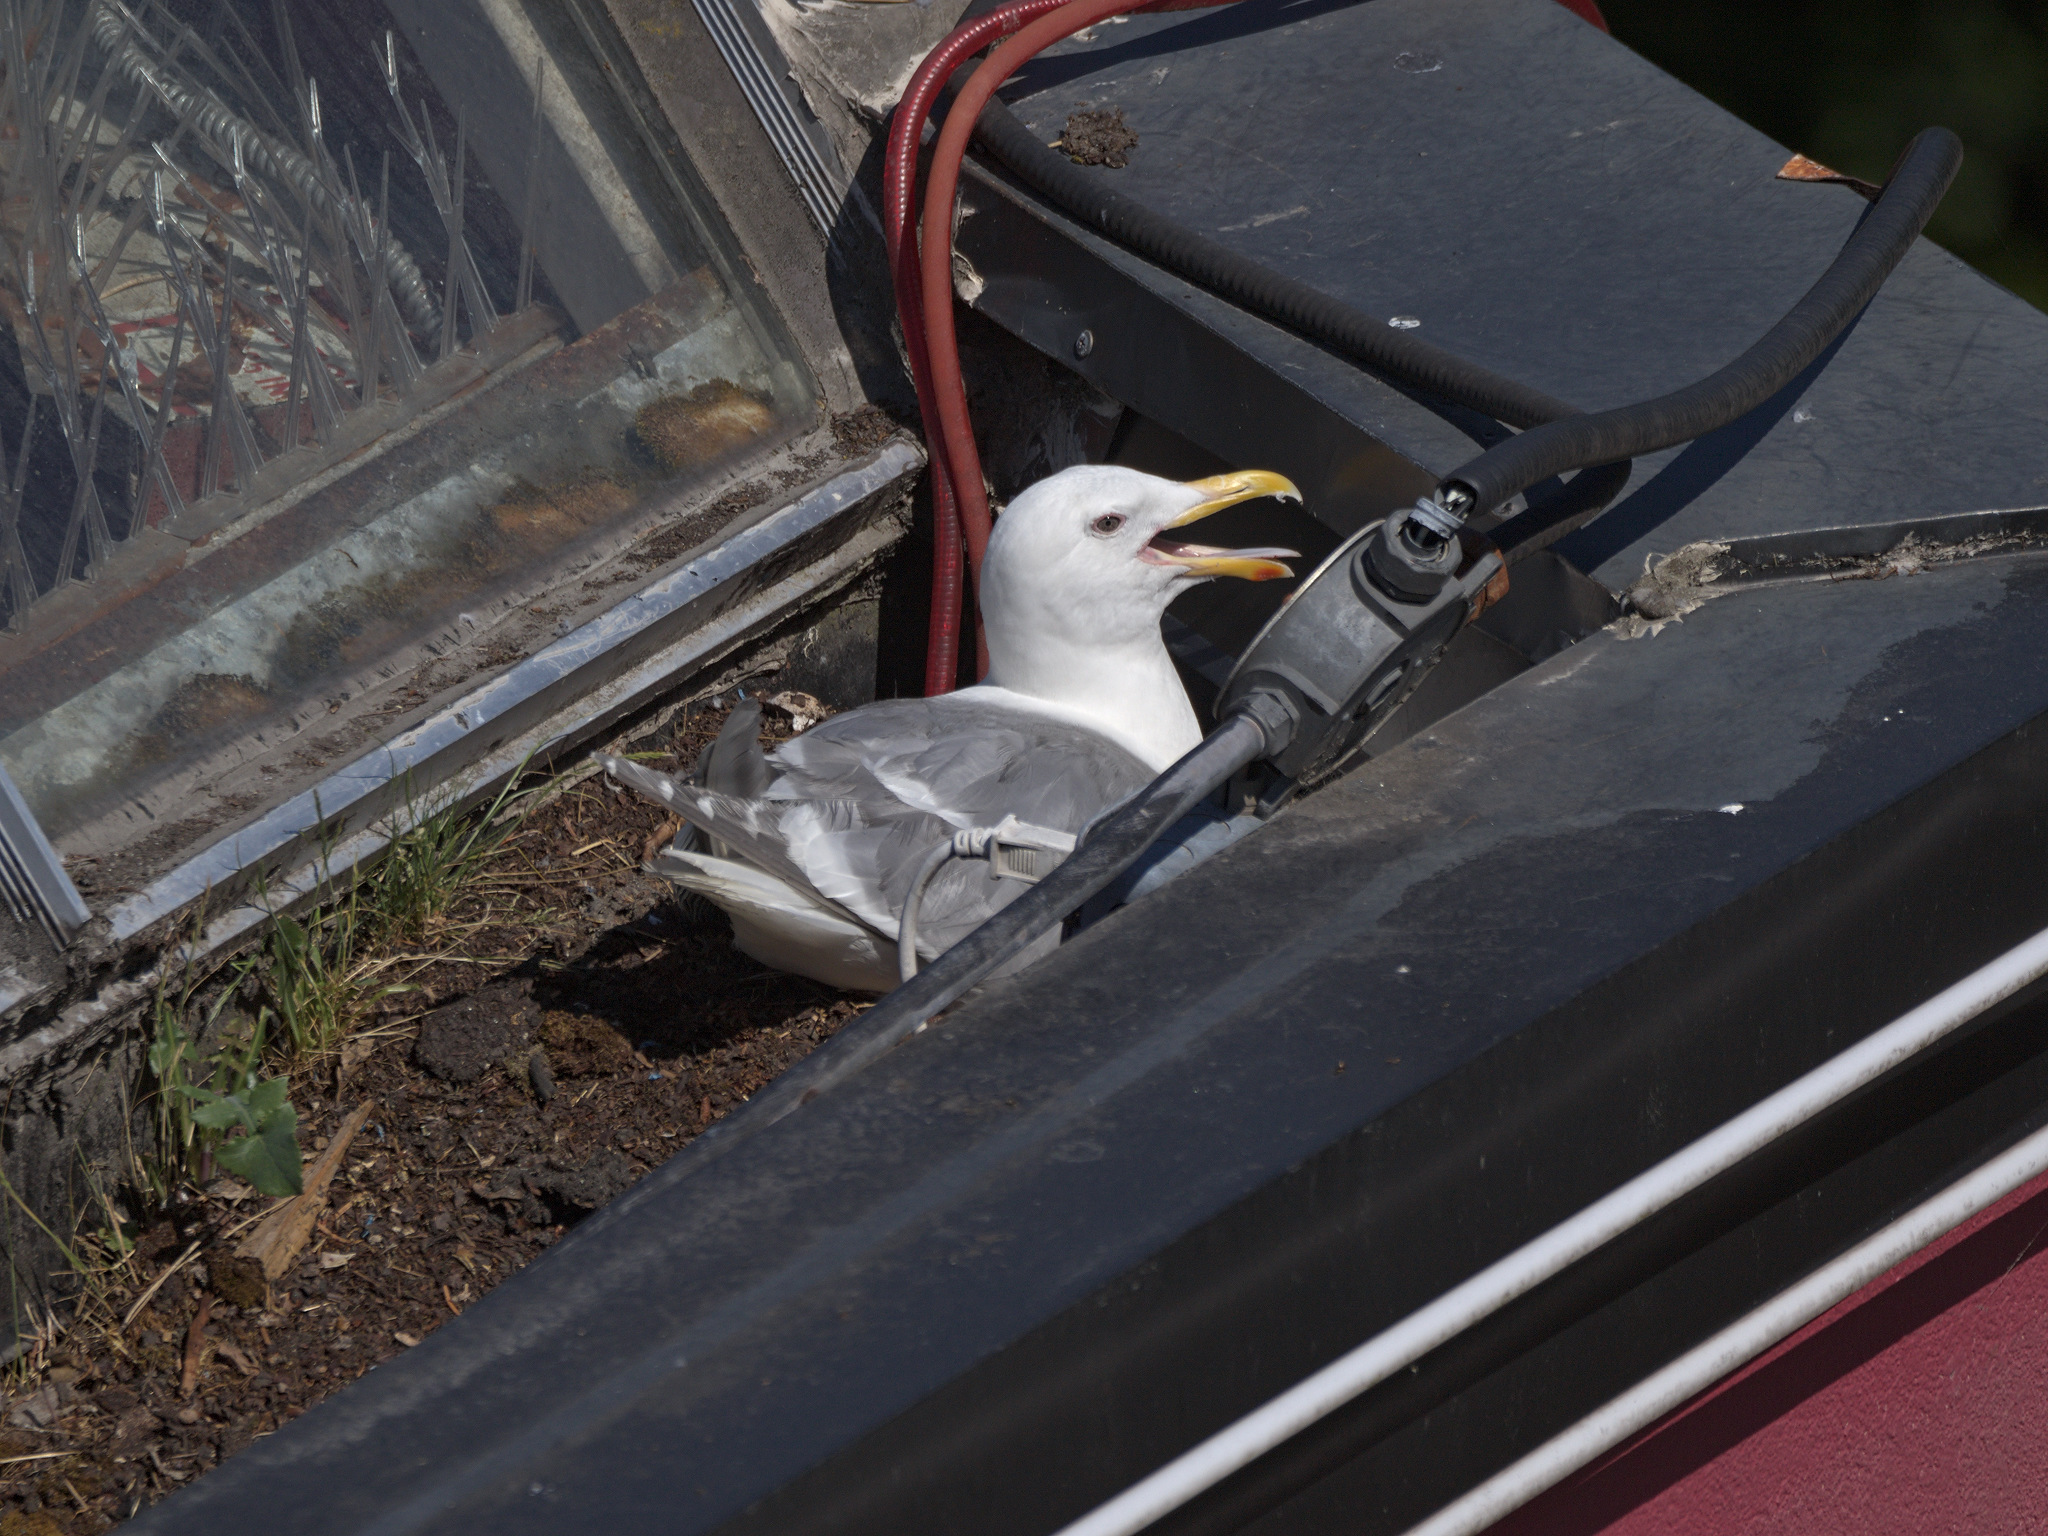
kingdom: Animalia
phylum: Chordata
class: Aves
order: Charadriiformes
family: Laridae
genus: Larus
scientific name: Larus glaucescens
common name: Glaucous-winged gull
